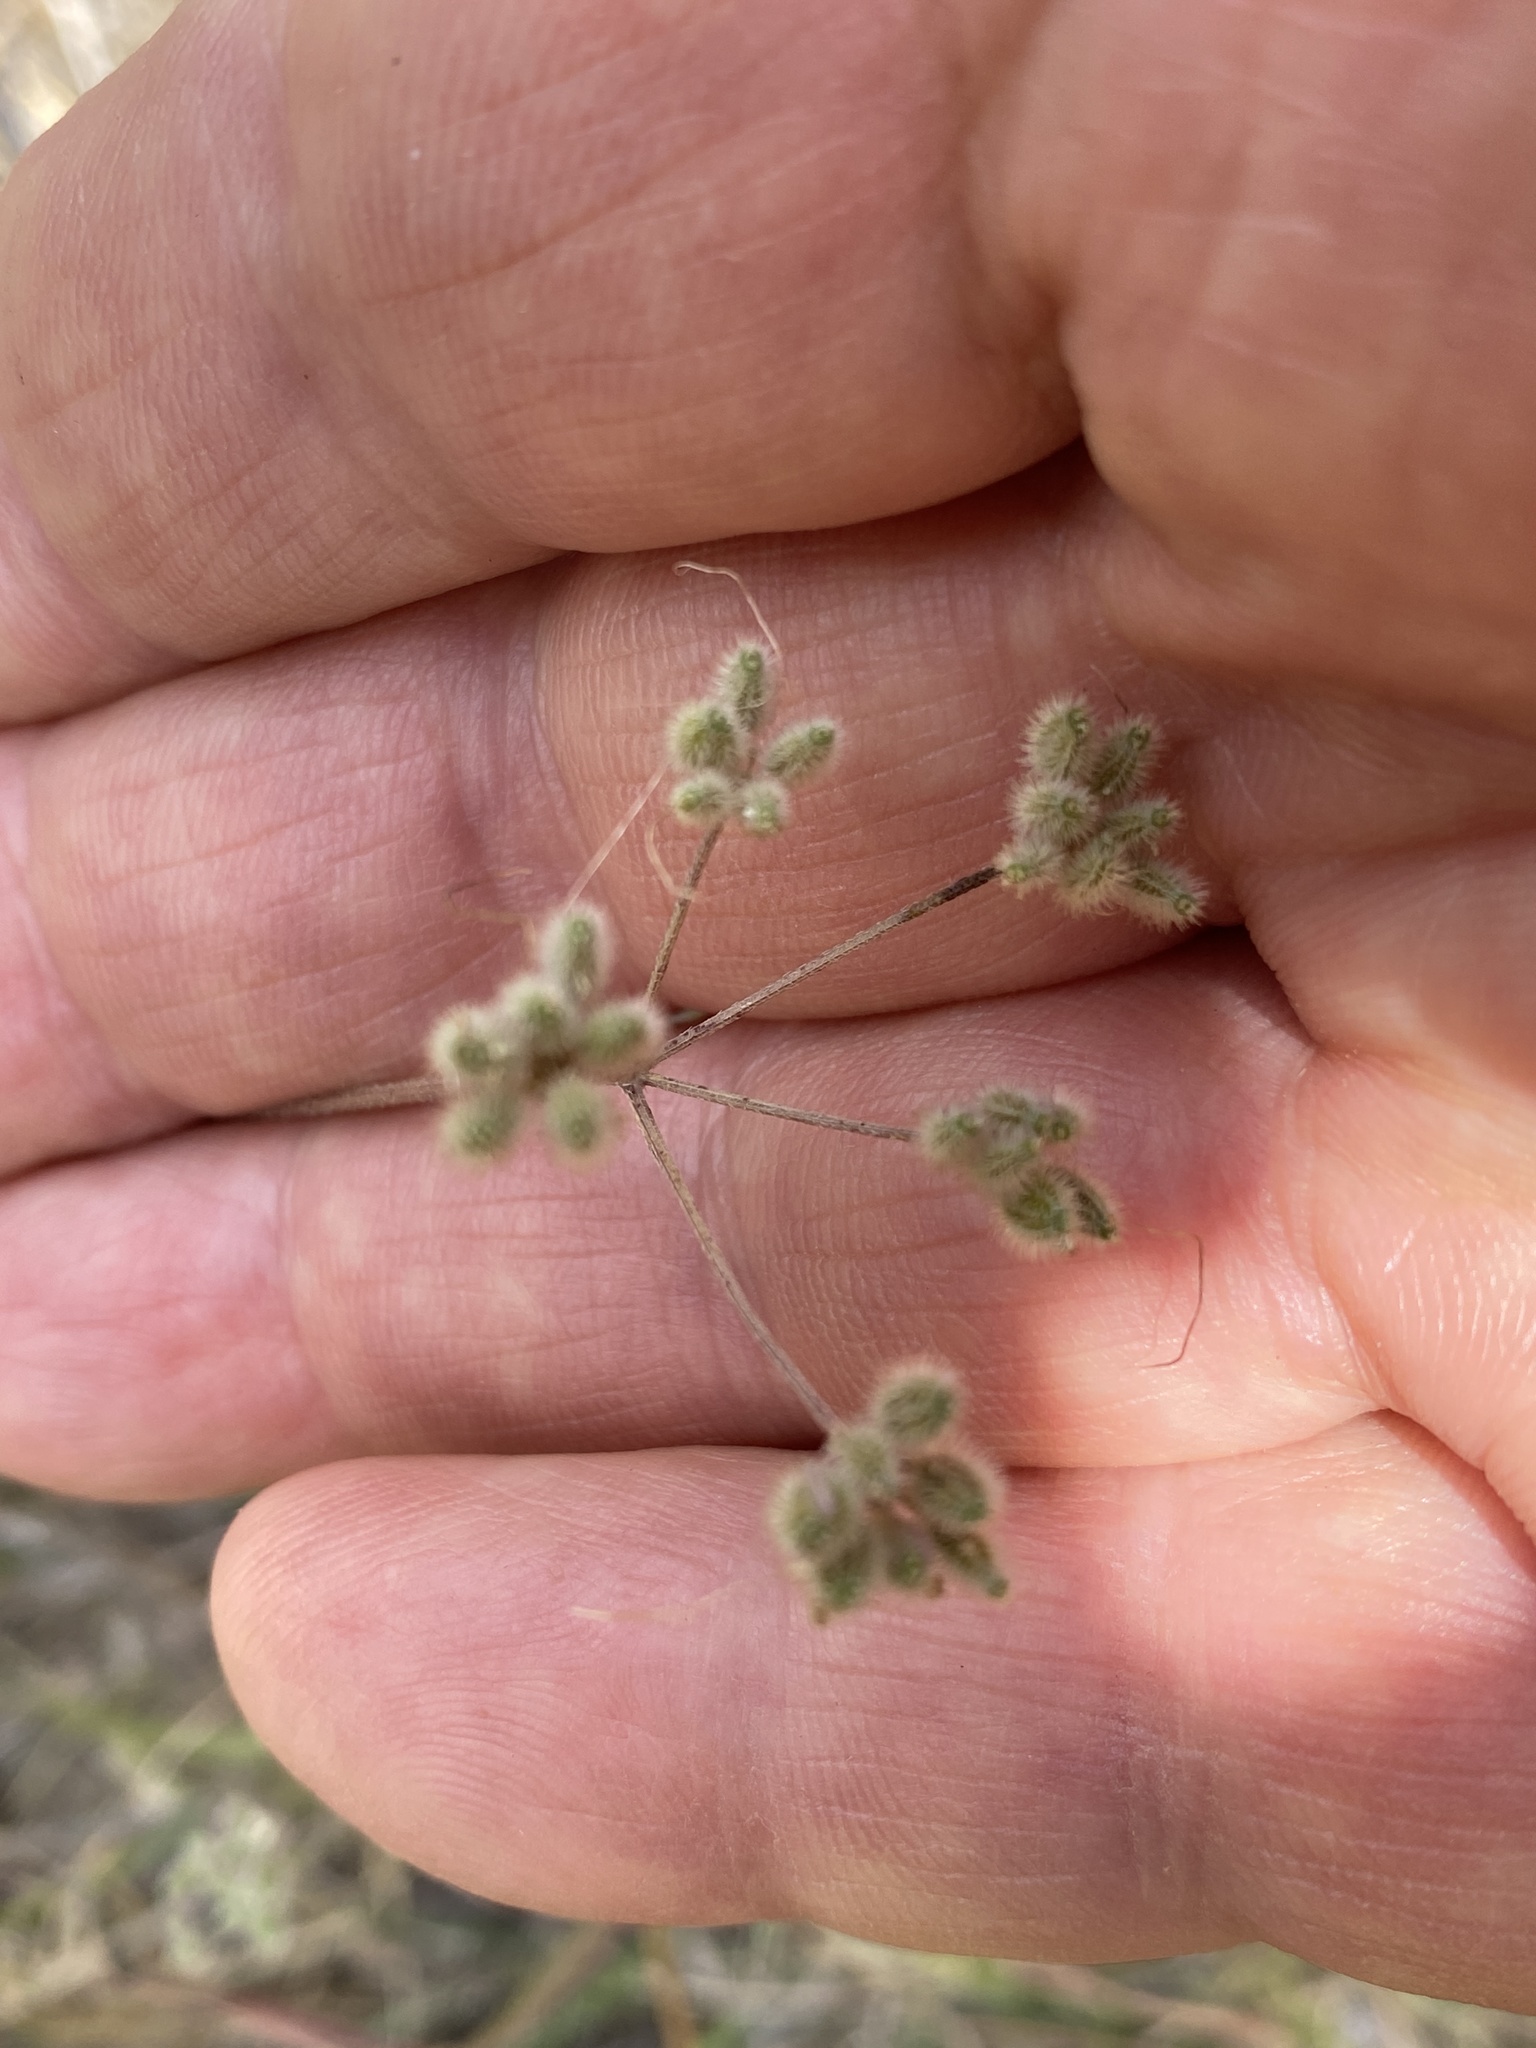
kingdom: Plantae
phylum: Tracheophyta
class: Magnoliopsida
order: Apiales
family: Apiaceae
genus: Torilis
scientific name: Torilis arvensis
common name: Spreading hedge-parsley
